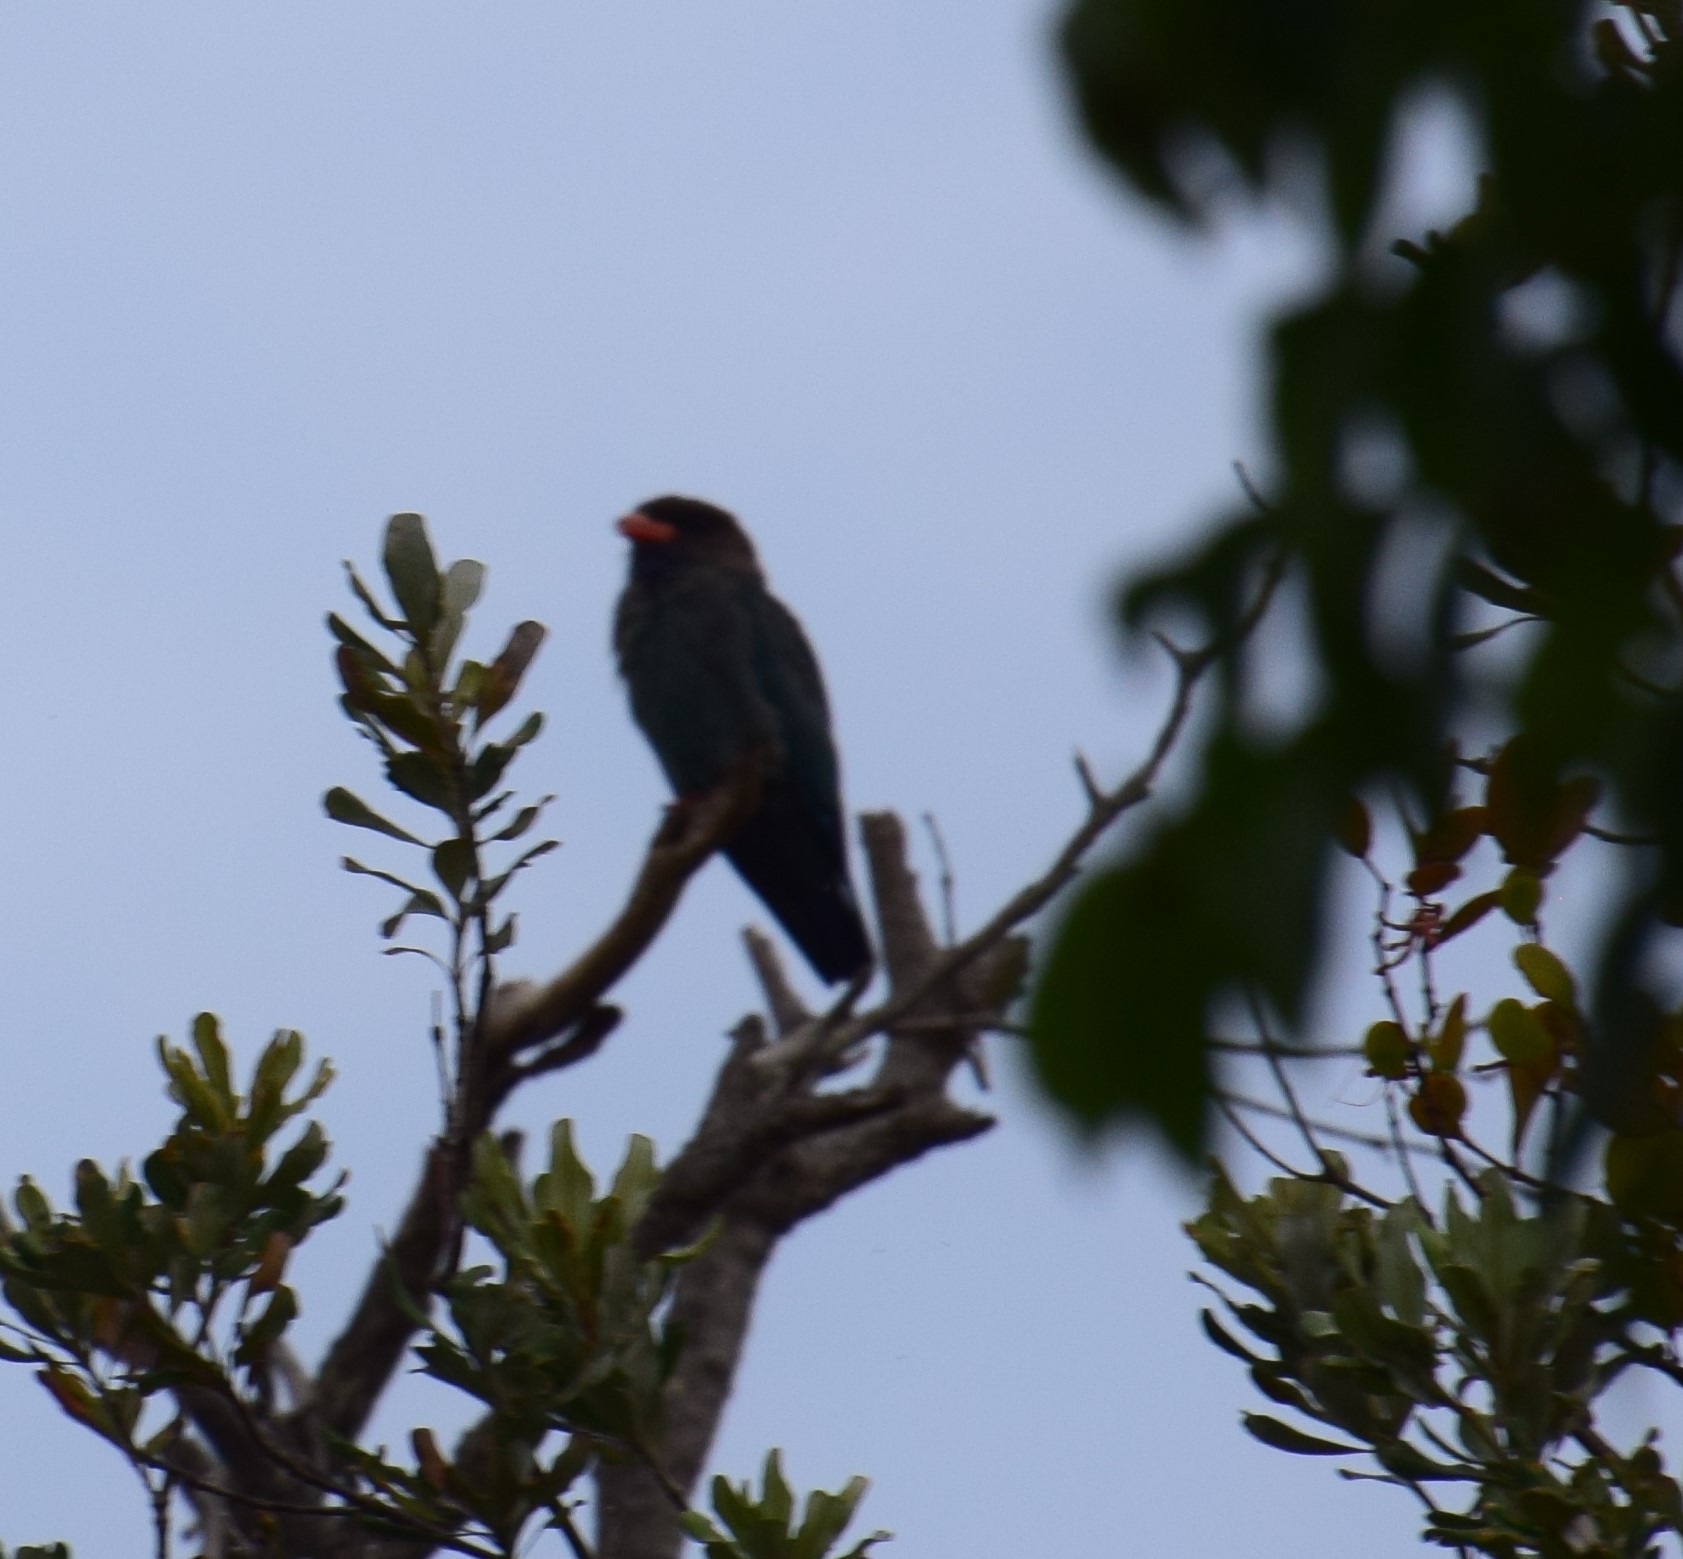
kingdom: Animalia
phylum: Chordata
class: Aves
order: Coraciiformes
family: Coraciidae
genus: Eurystomus
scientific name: Eurystomus orientalis
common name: Oriental dollarbird
